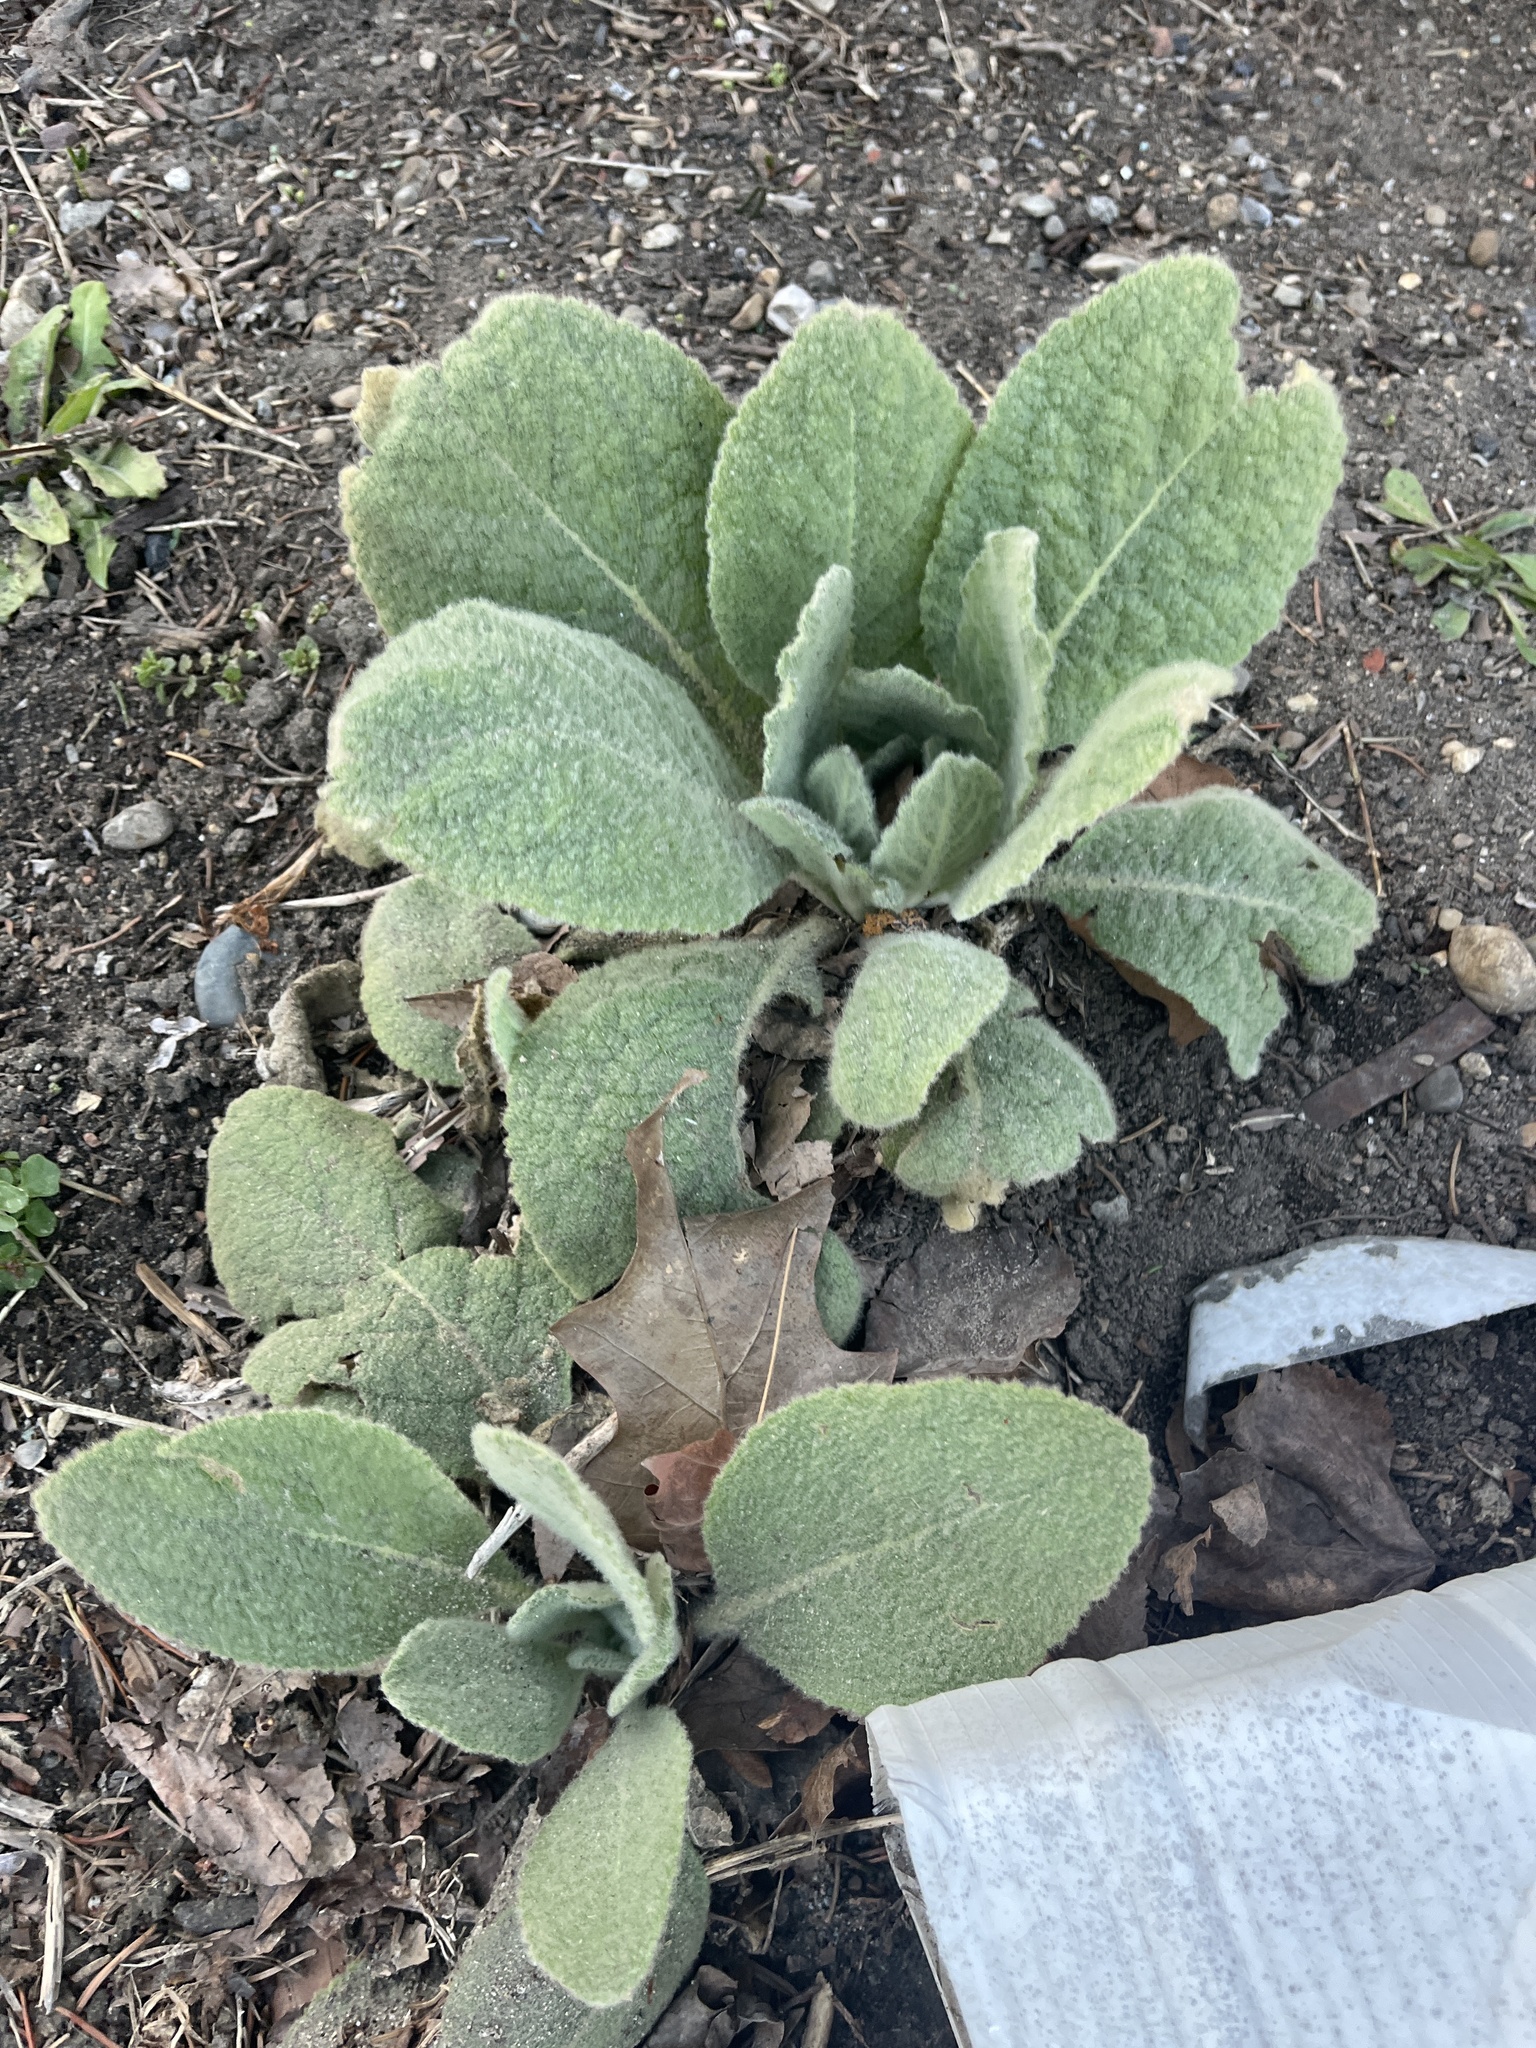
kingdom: Plantae
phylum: Tracheophyta
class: Magnoliopsida
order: Lamiales
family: Scrophulariaceae
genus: Verbascum
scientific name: Verbascum thapsus
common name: Common mullein
